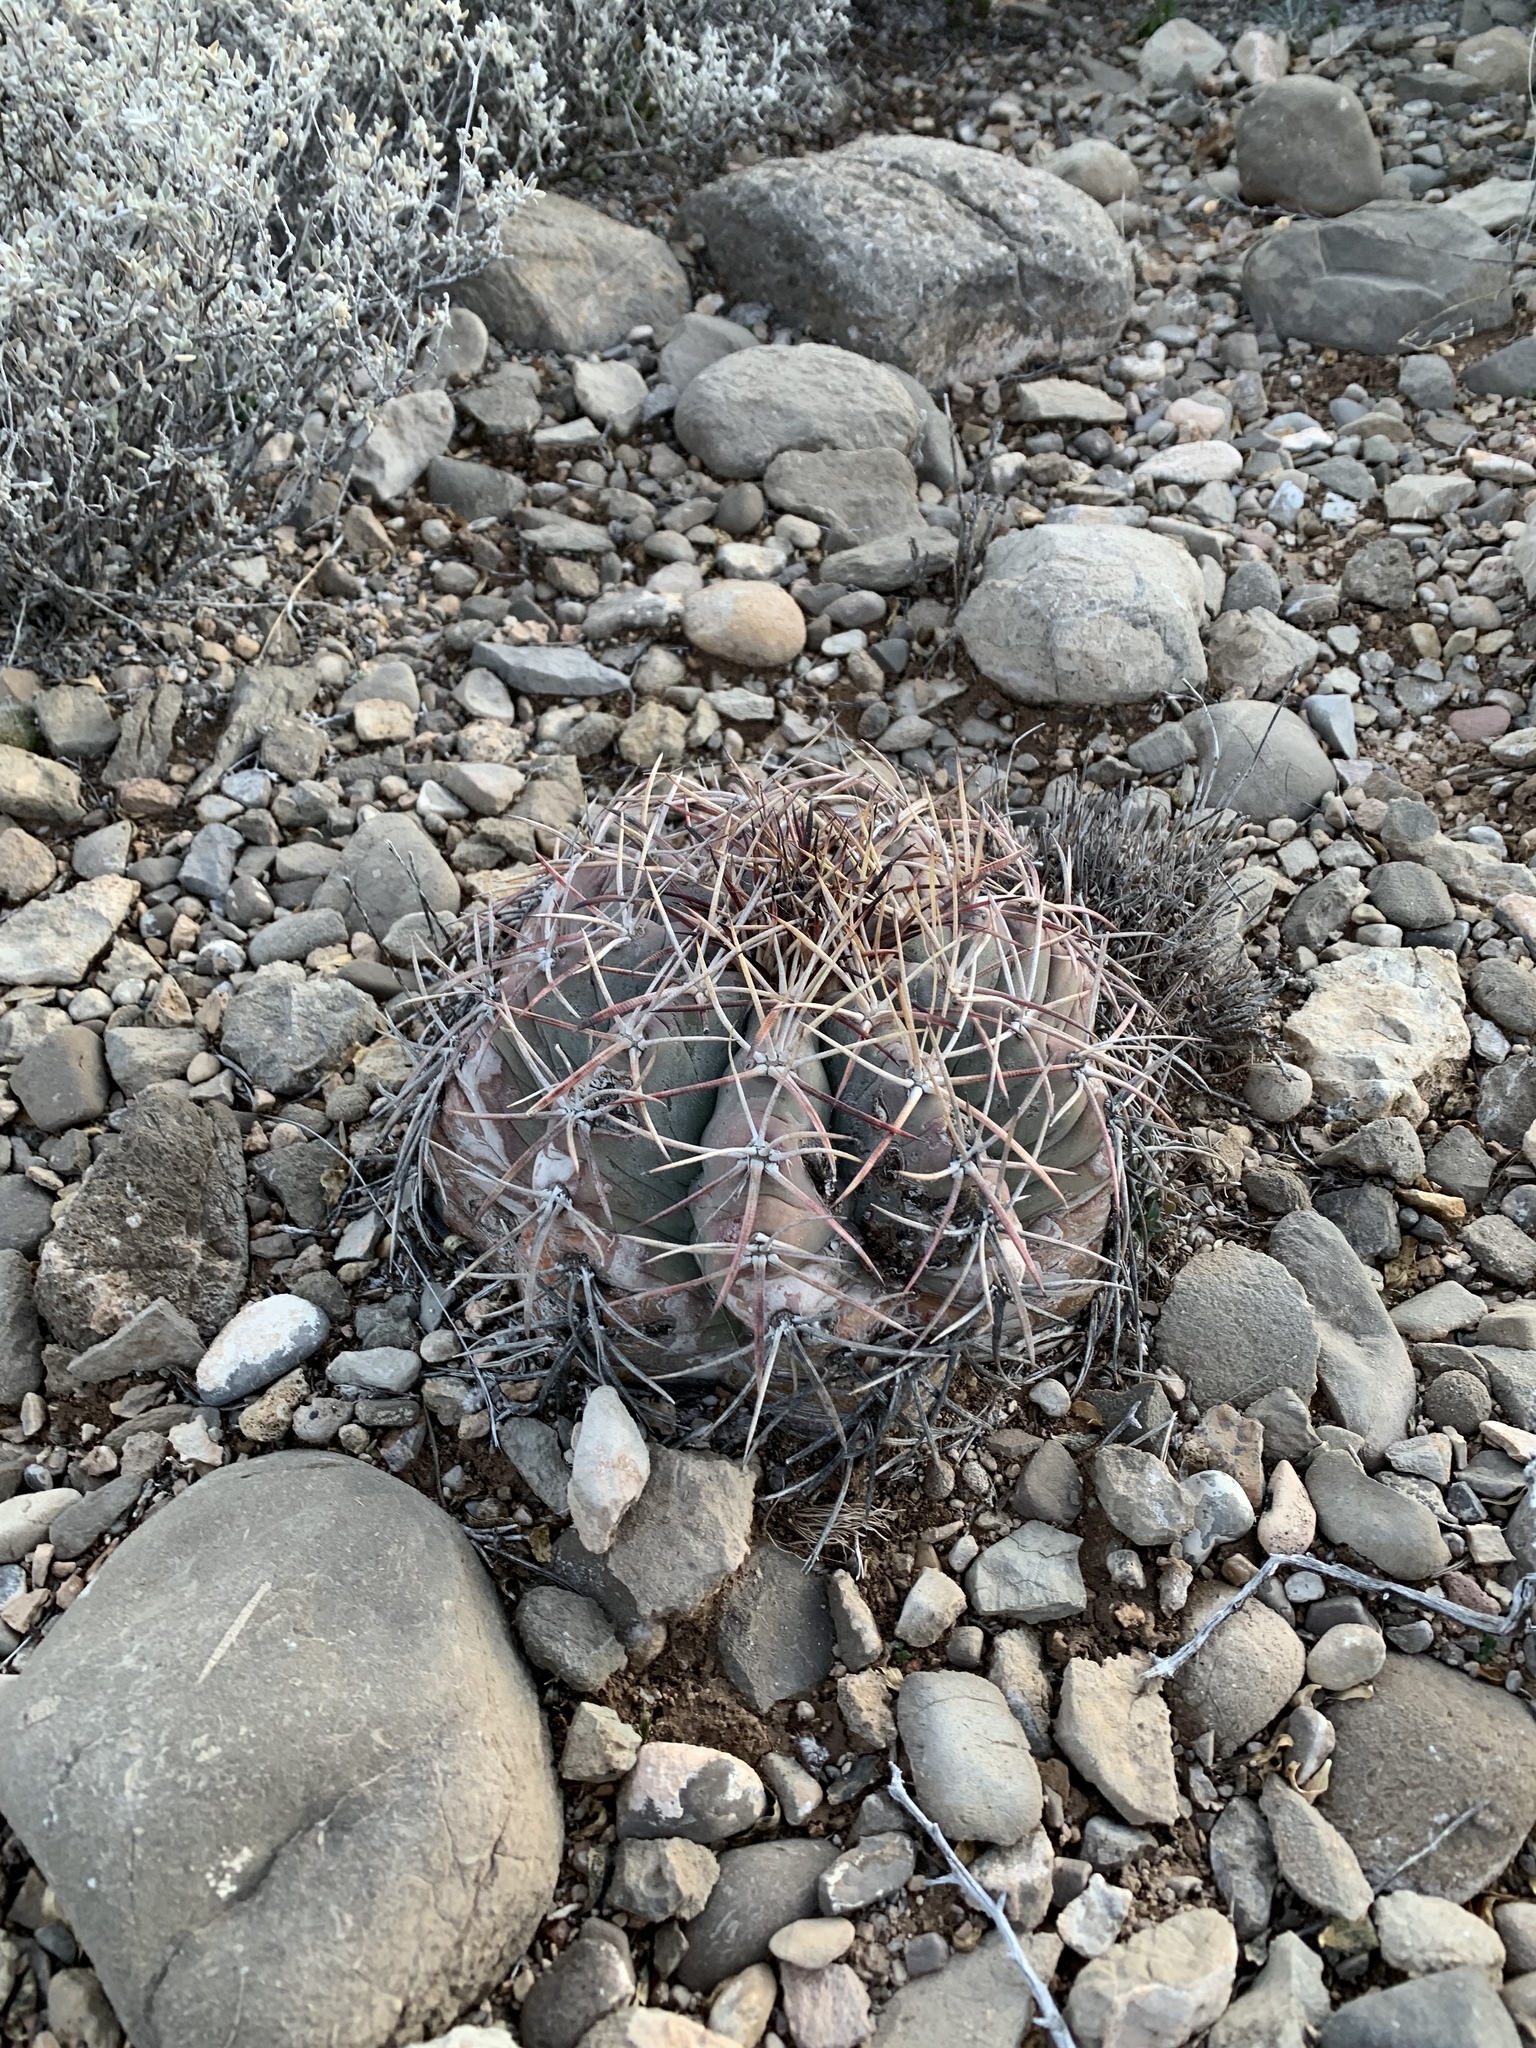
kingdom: Plantae
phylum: Tracheophyta
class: Magnoliopsida
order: Caryophyllales
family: Cactaceae
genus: Echinocactus
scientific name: Echinocactus horizonthalonius
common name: Devilshead
